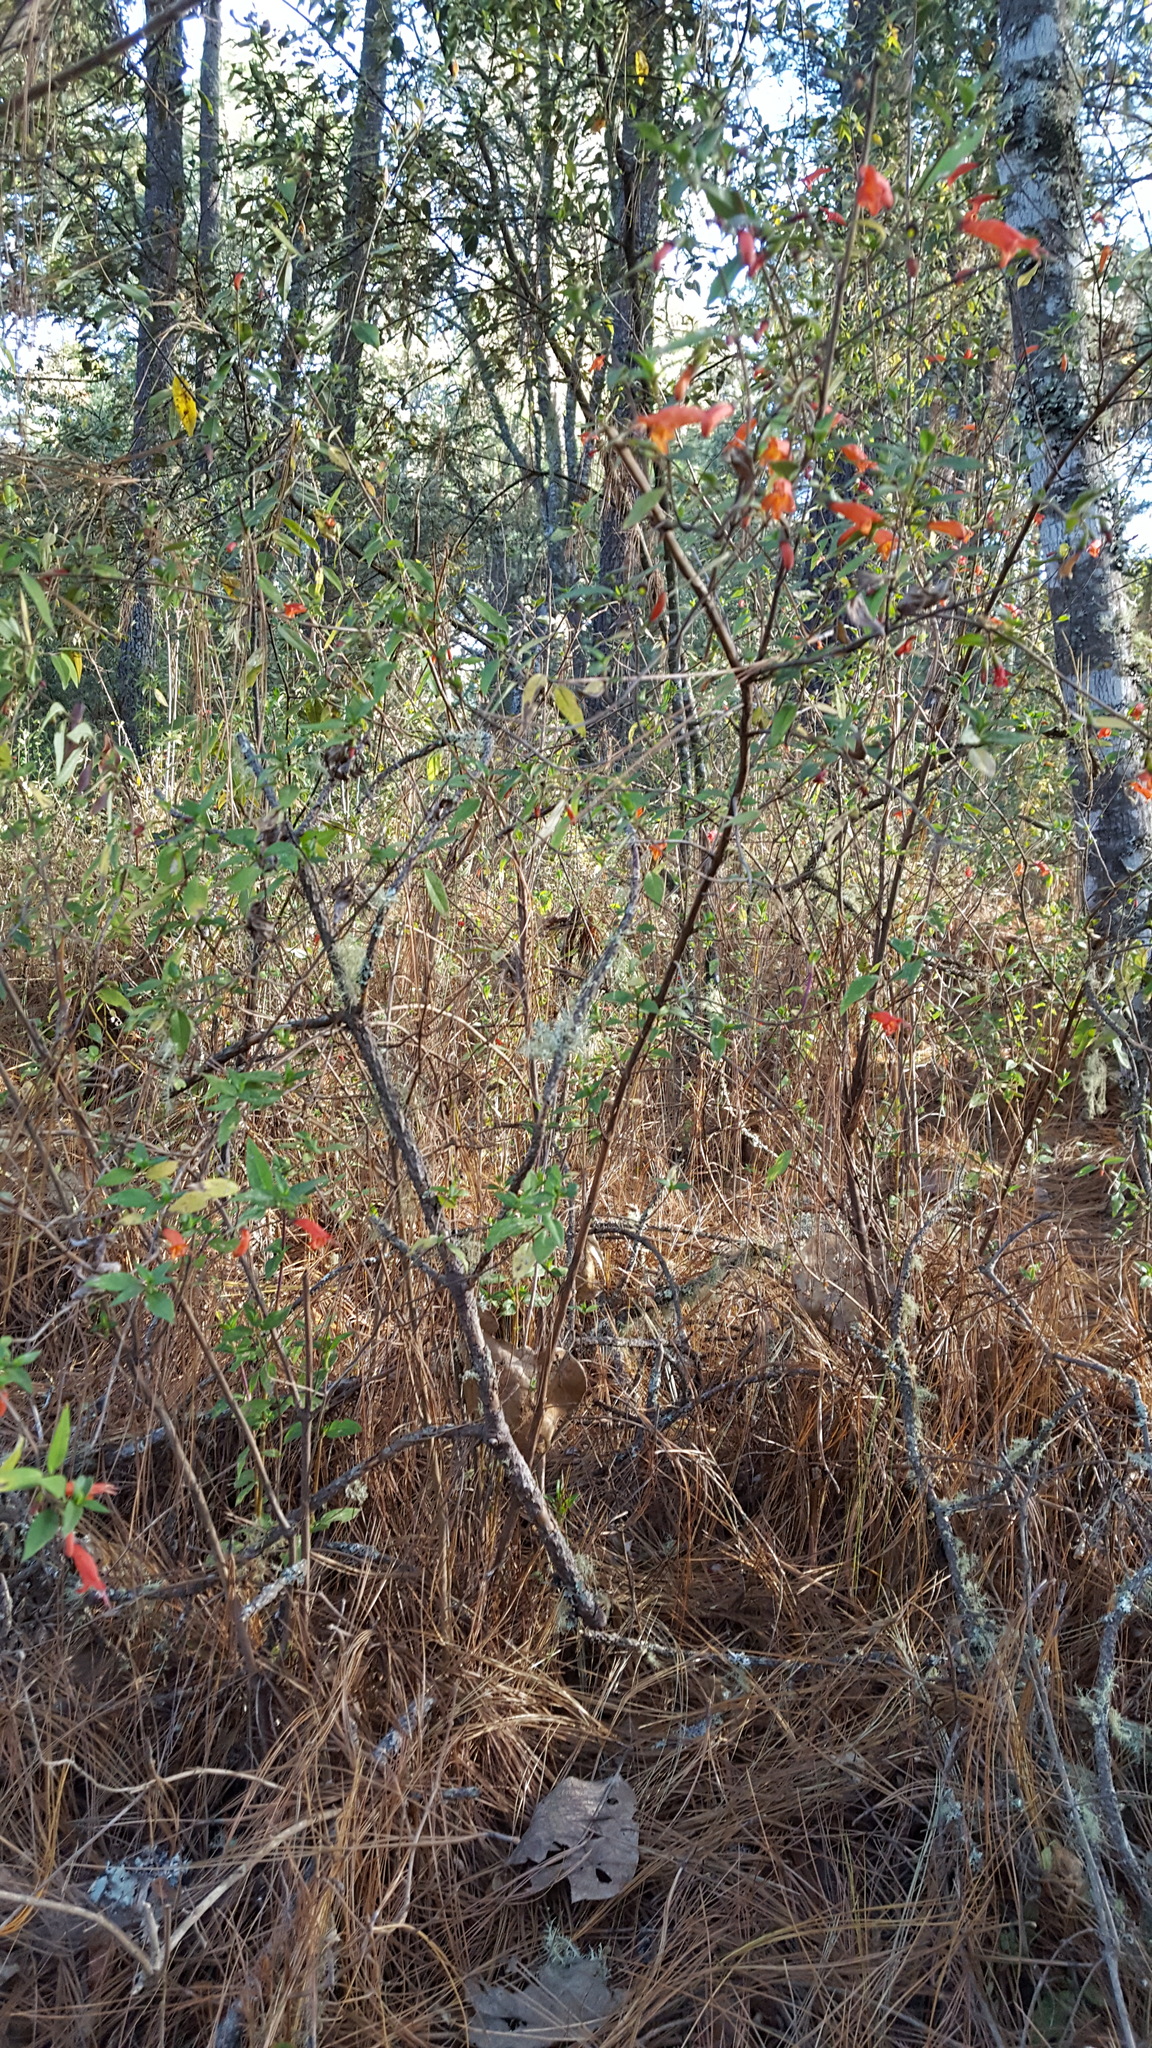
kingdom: Plantae
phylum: Tracheophyta
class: Magnoliopsida
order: Lamiales
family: Lamiaceae
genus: Clinopodium
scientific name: Clinopodium macrostemum
